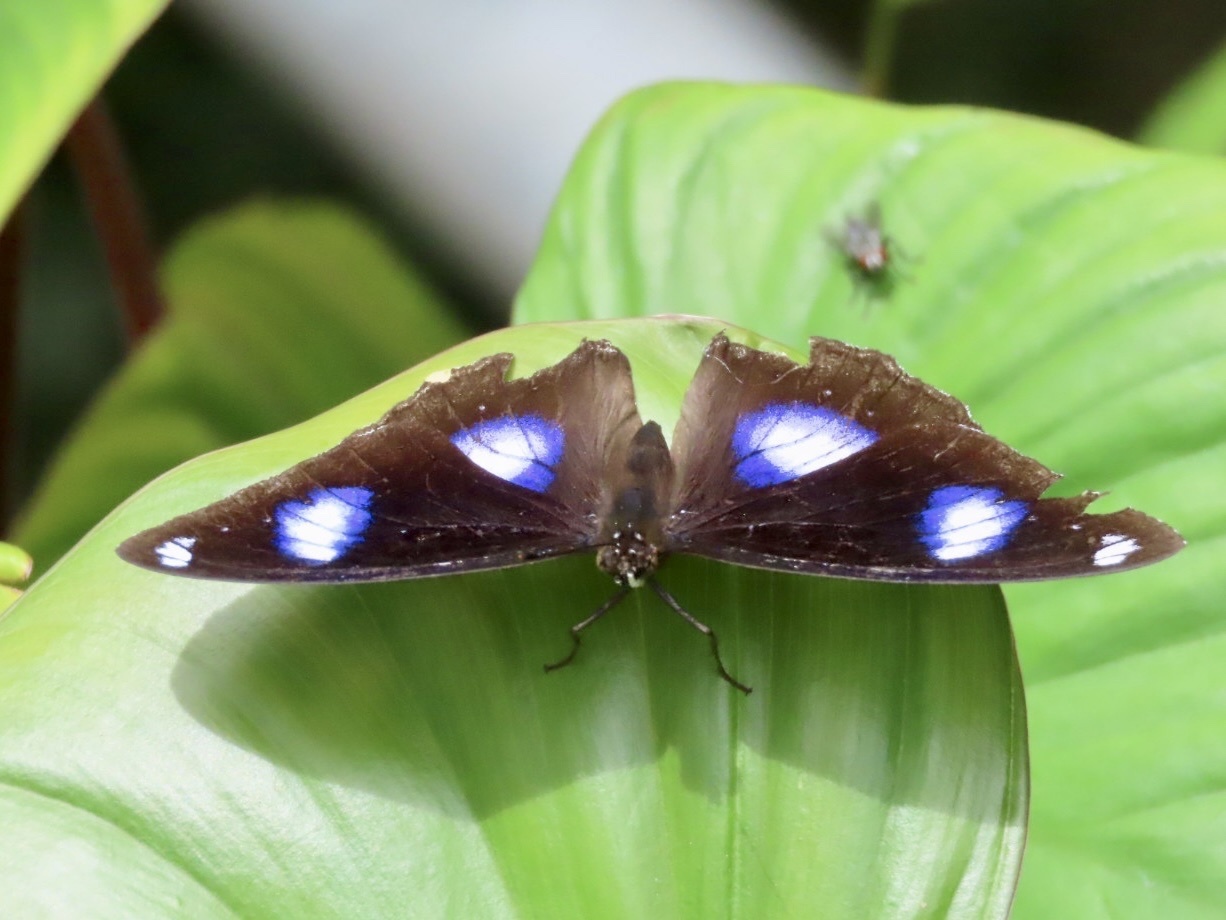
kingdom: Animalia
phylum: Arthropoda
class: Insecta
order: Lepidoptera
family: Nymphalidae
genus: Hypolimnas
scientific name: Hypolimnas bolina
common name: Great eggfly
